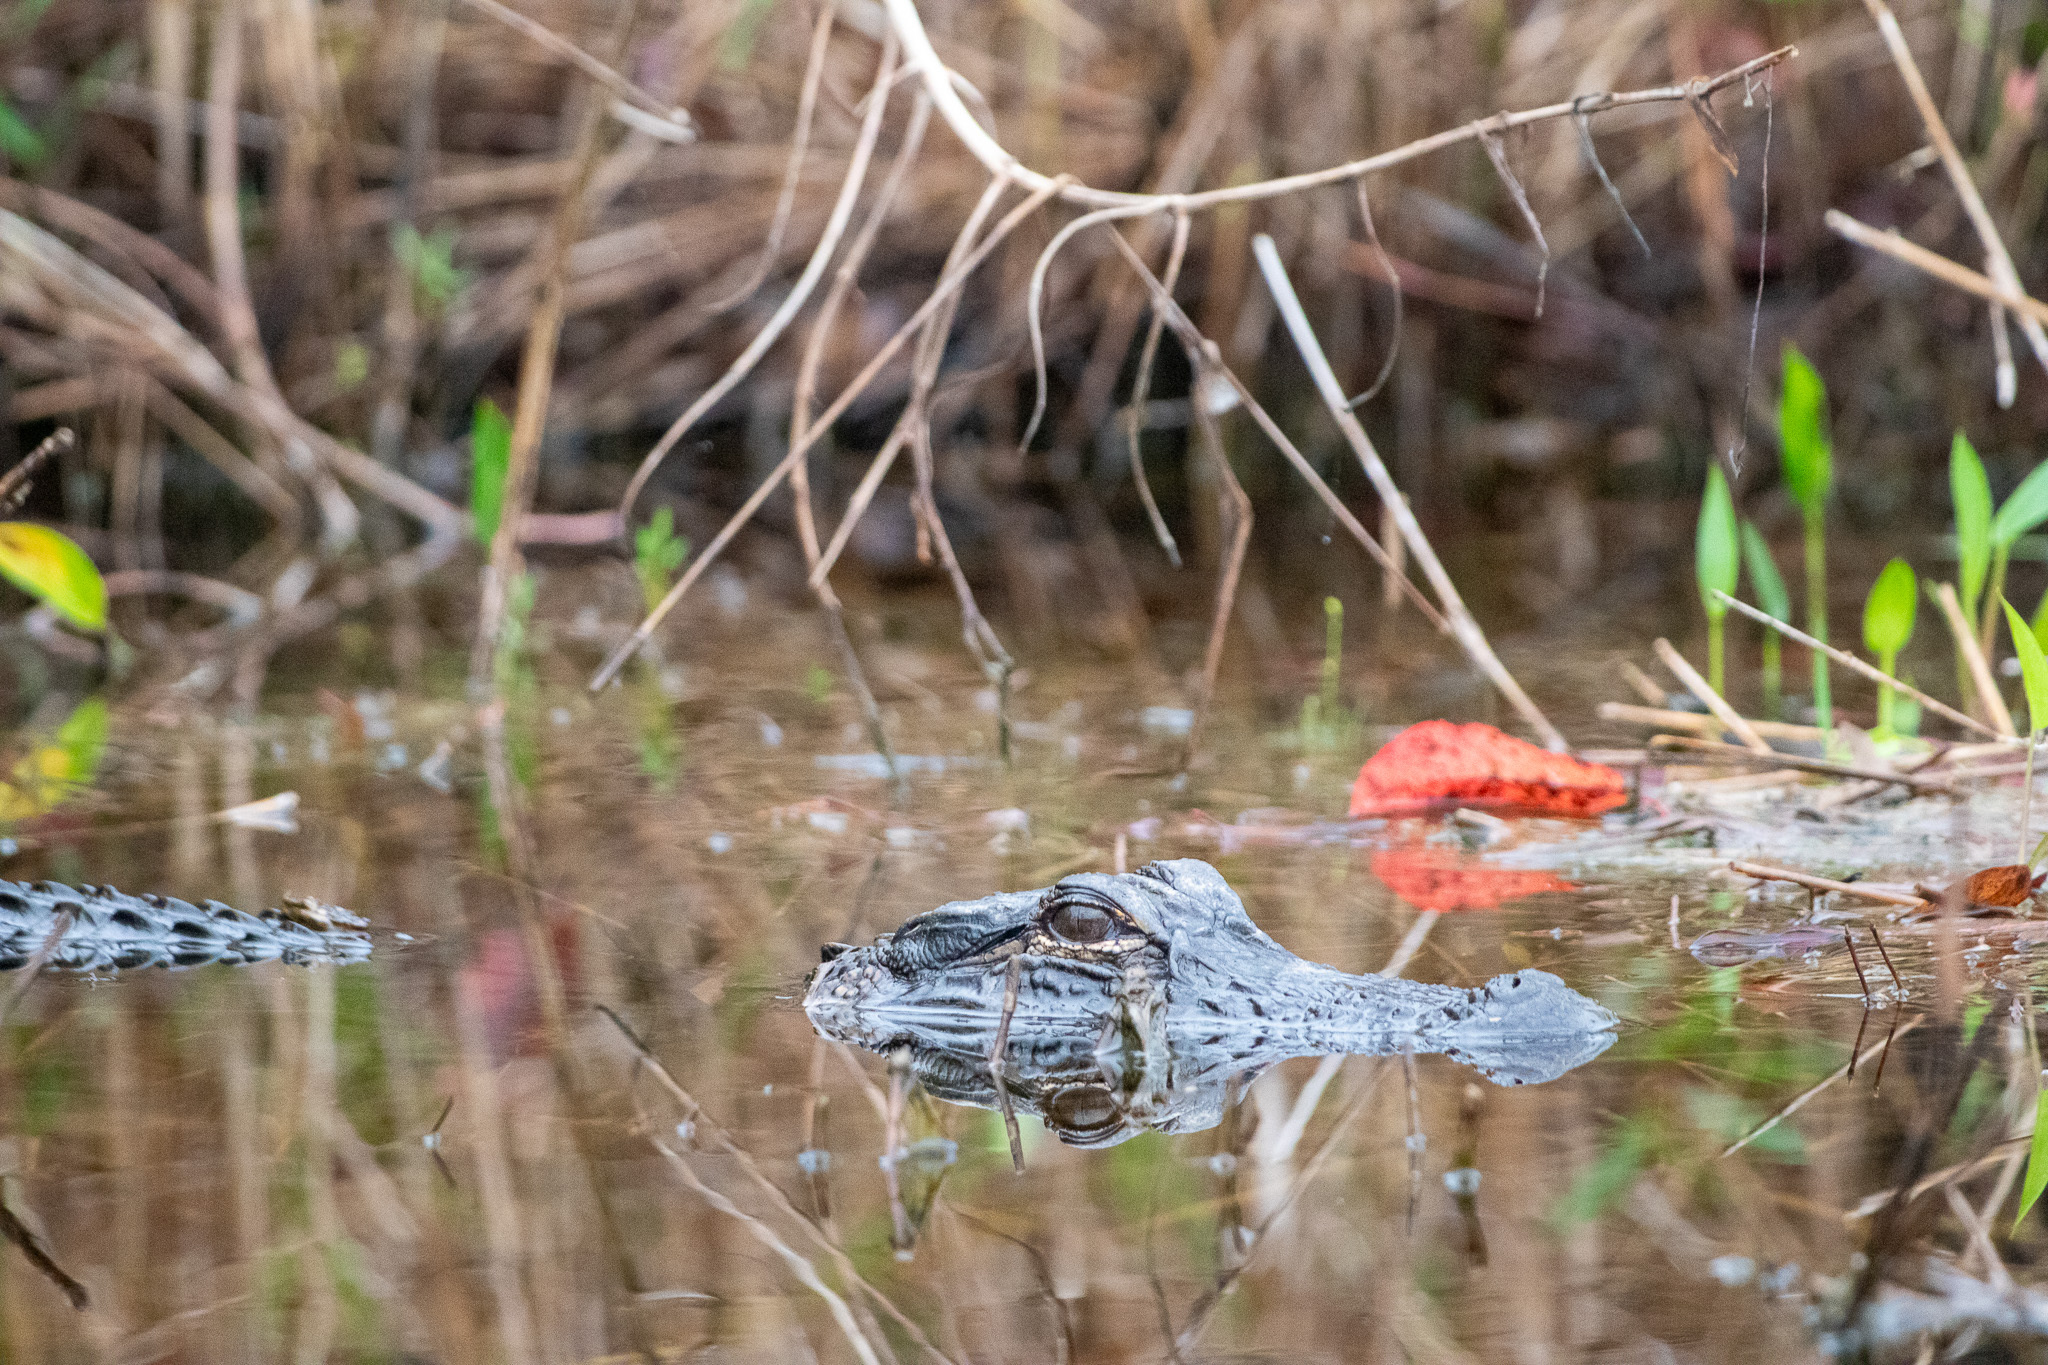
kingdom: Animalia
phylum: Chordata
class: Crocodylia
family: Alligatoridae
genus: Alligator
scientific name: Alligator mississippiensis
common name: American alligator
